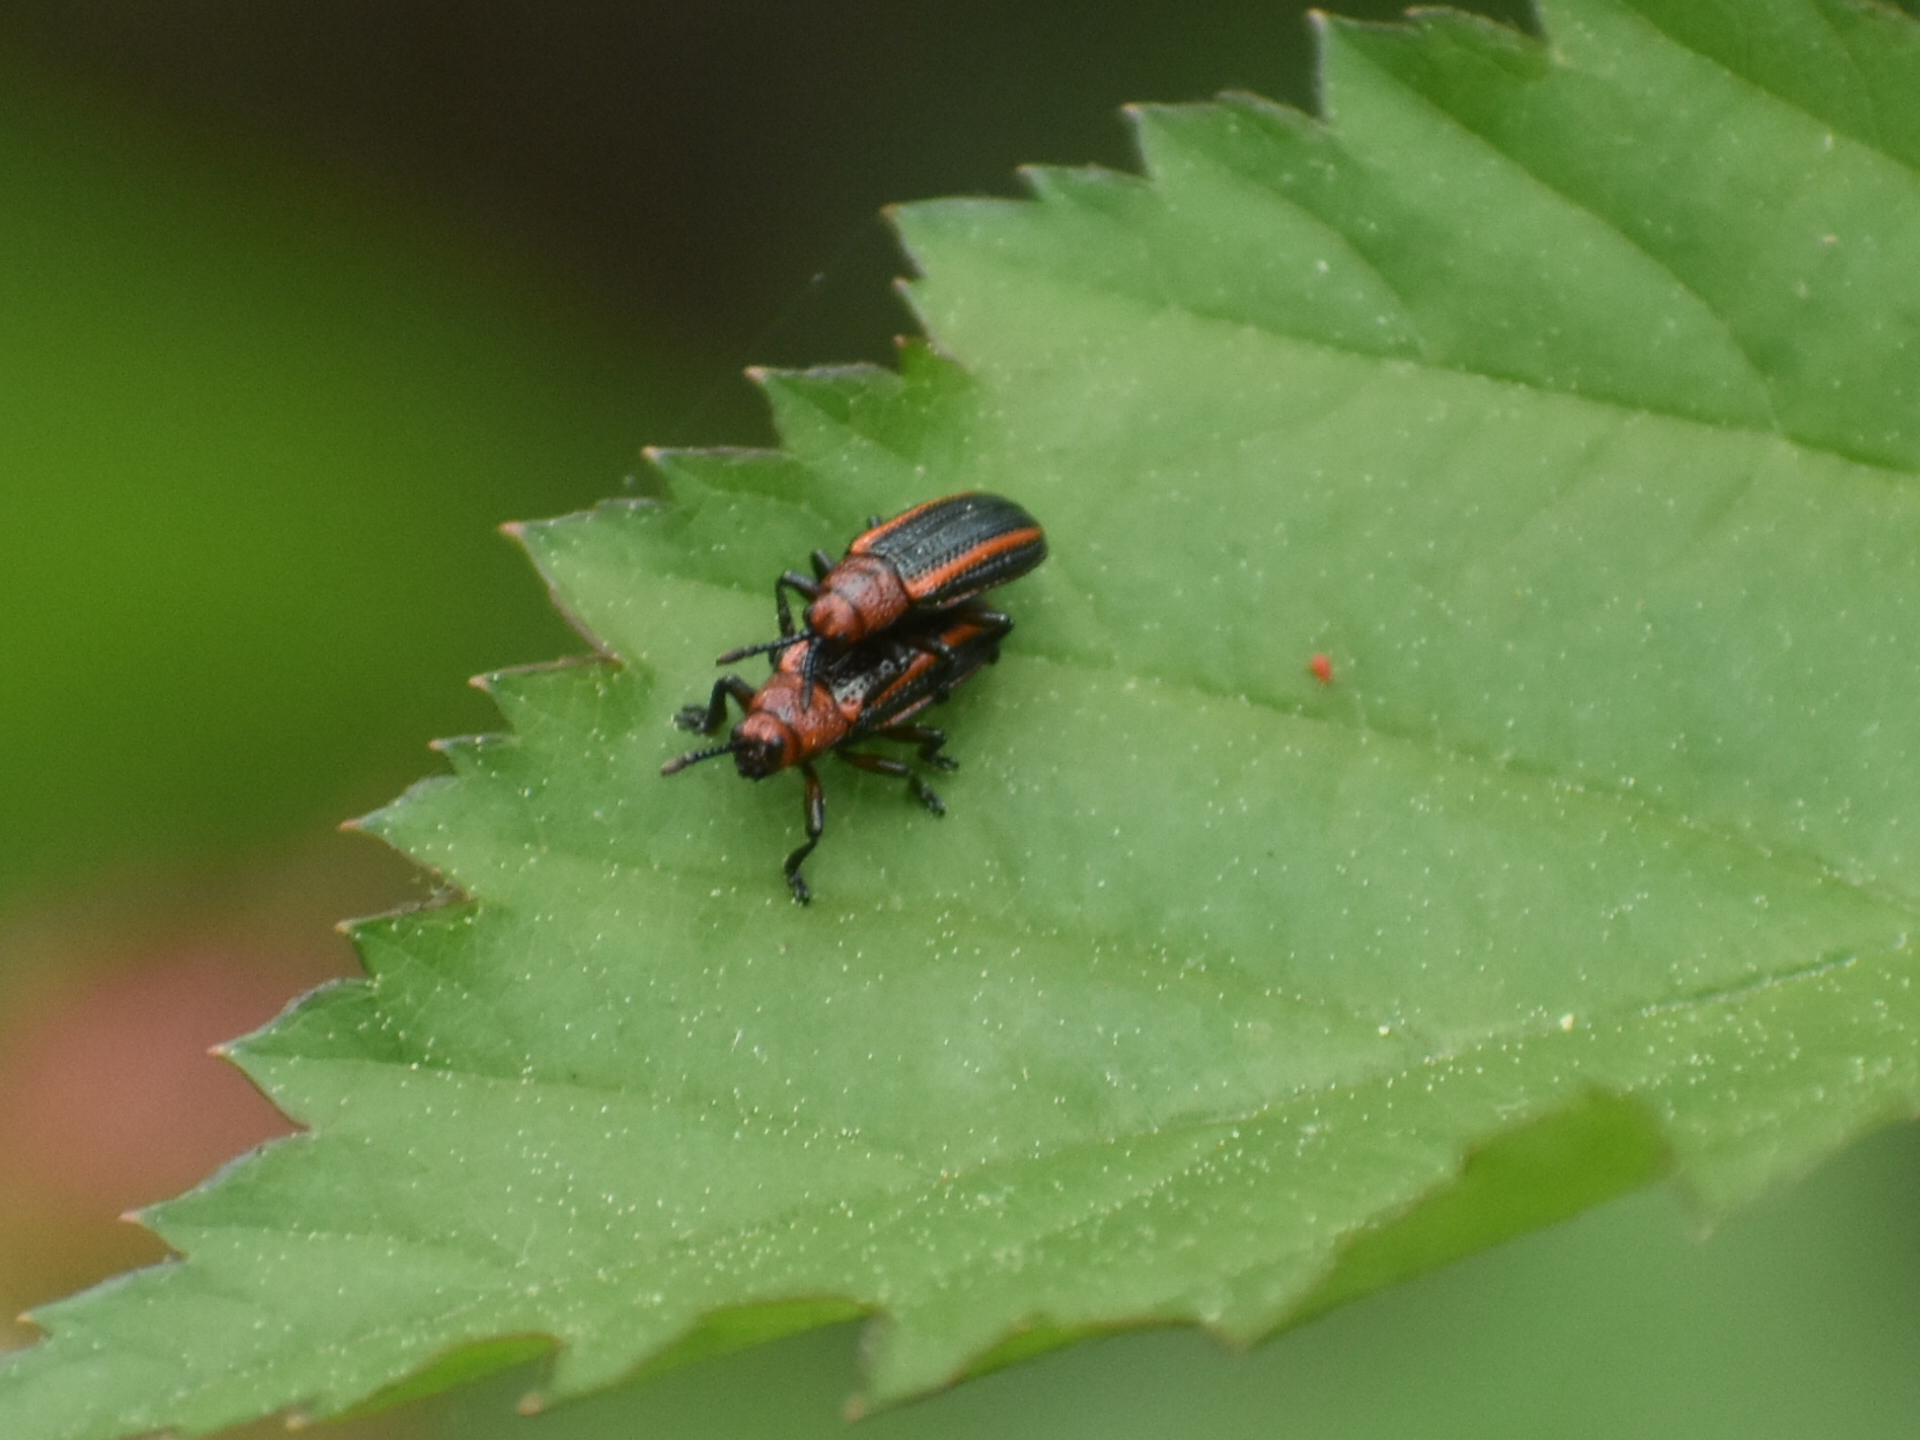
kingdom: Animalia
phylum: Arthropoda
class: Insecta
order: Coleoptera
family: Chrysomelidae
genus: Microrhopala
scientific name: Microrhopala vittata
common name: Goldenrod leaf miner beetle
